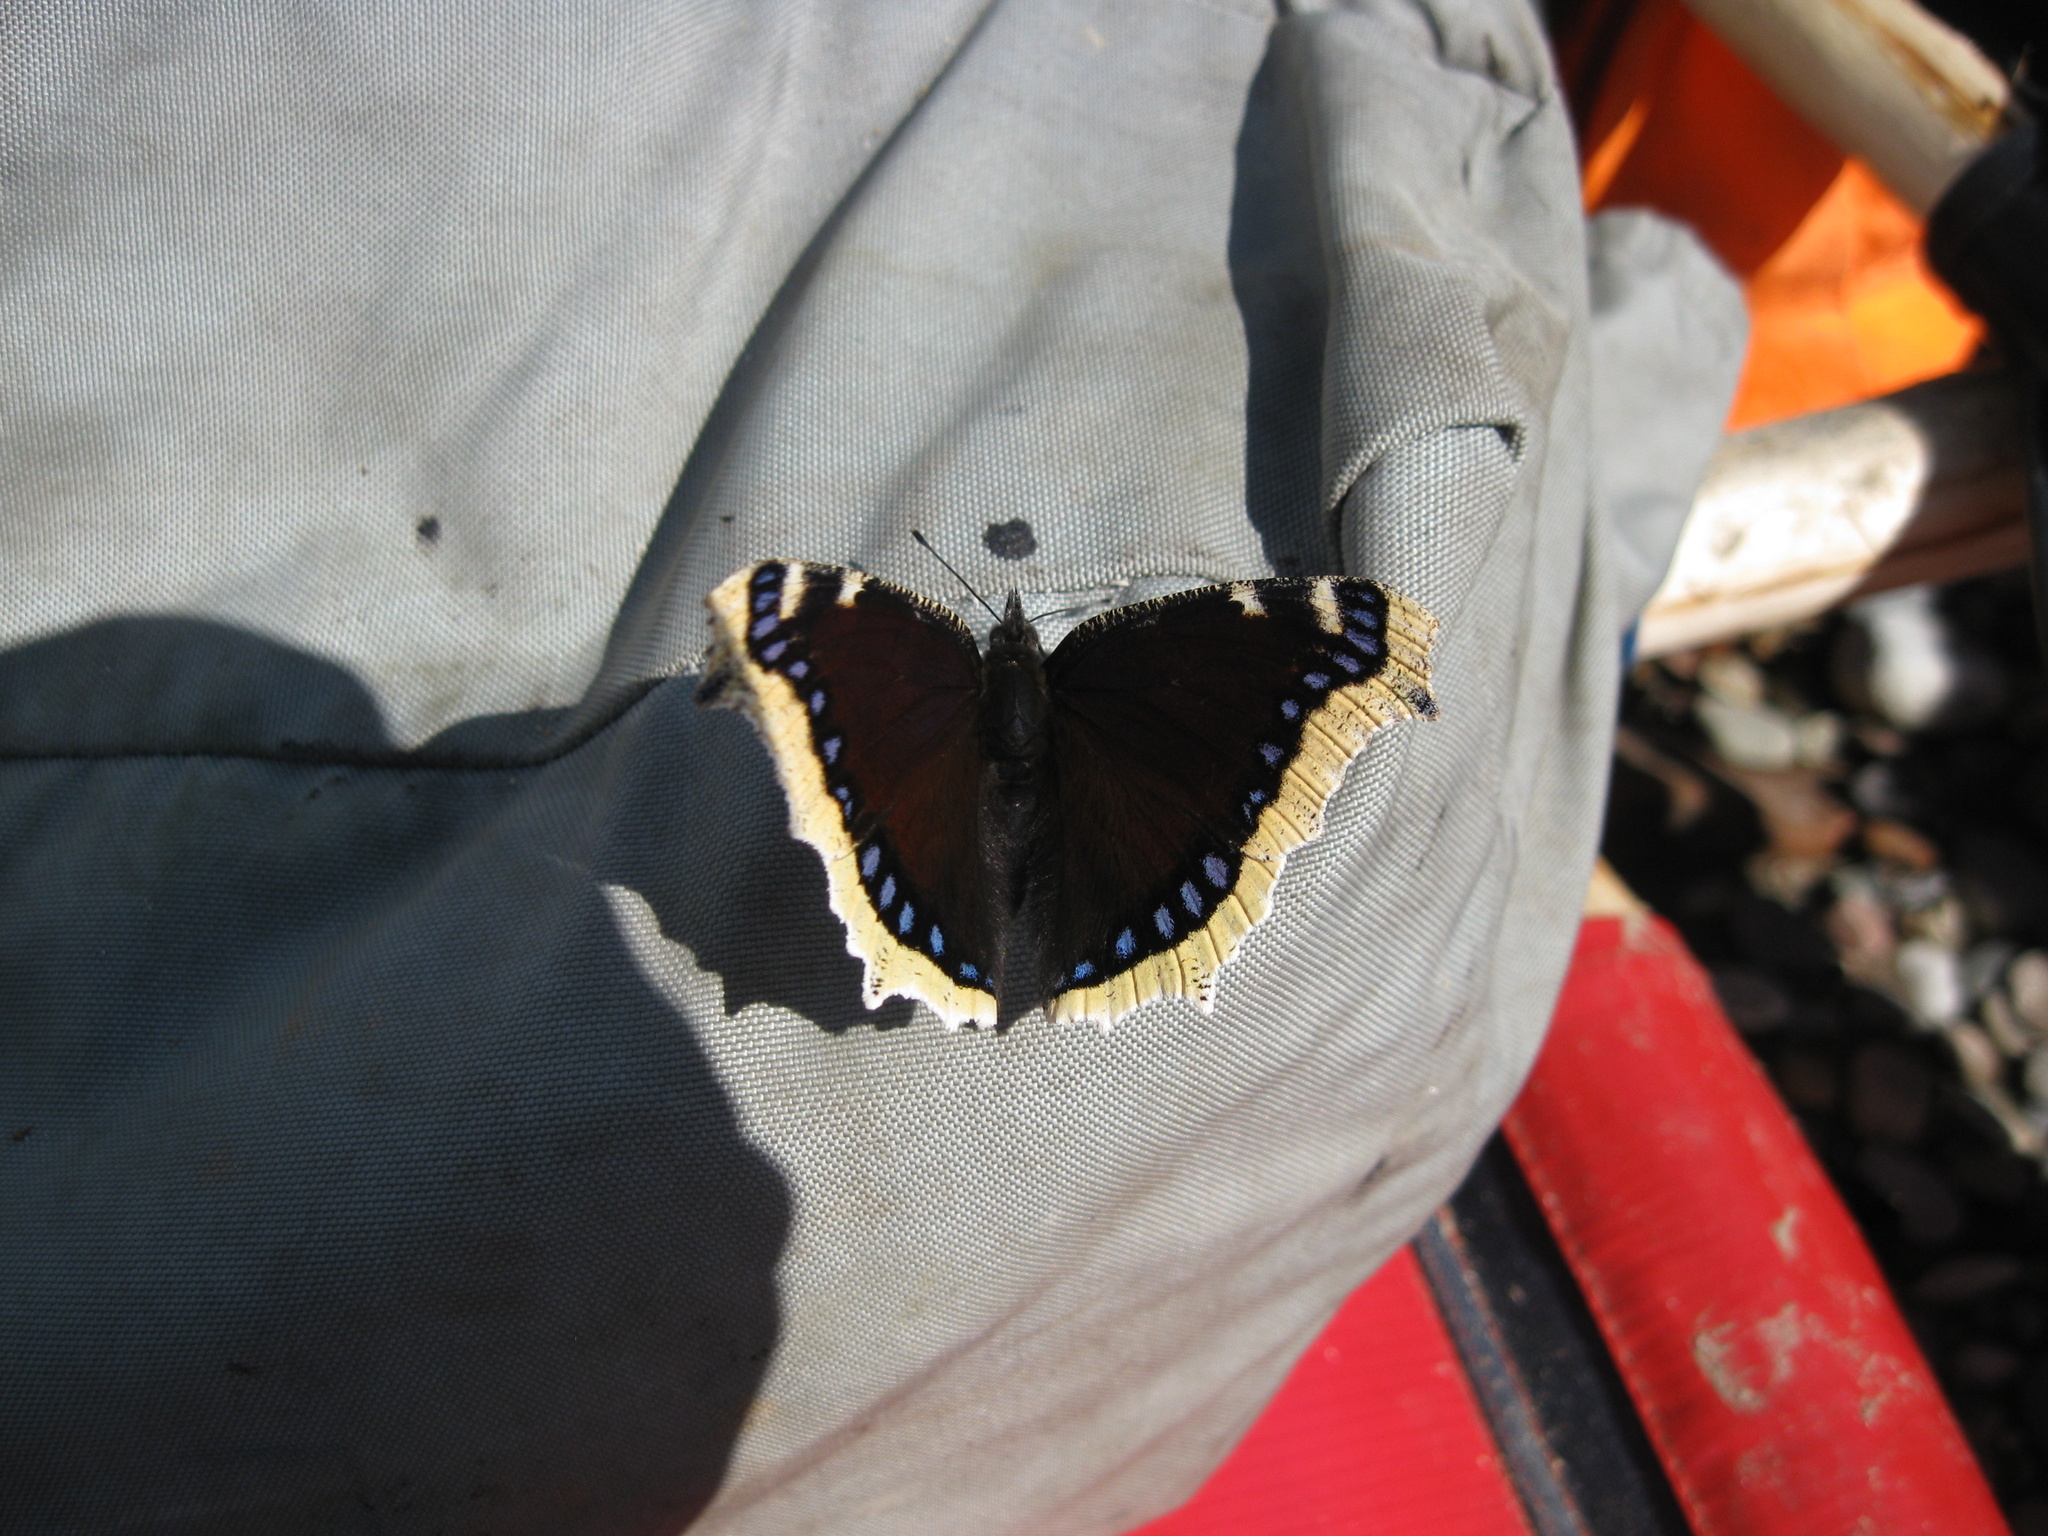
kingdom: Animalia
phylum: Arthropoda
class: Insecta
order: Lepidoptera
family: Nymphalidae
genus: Nymphalis
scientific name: Nymphalis antiopa
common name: Camberwell beauty
